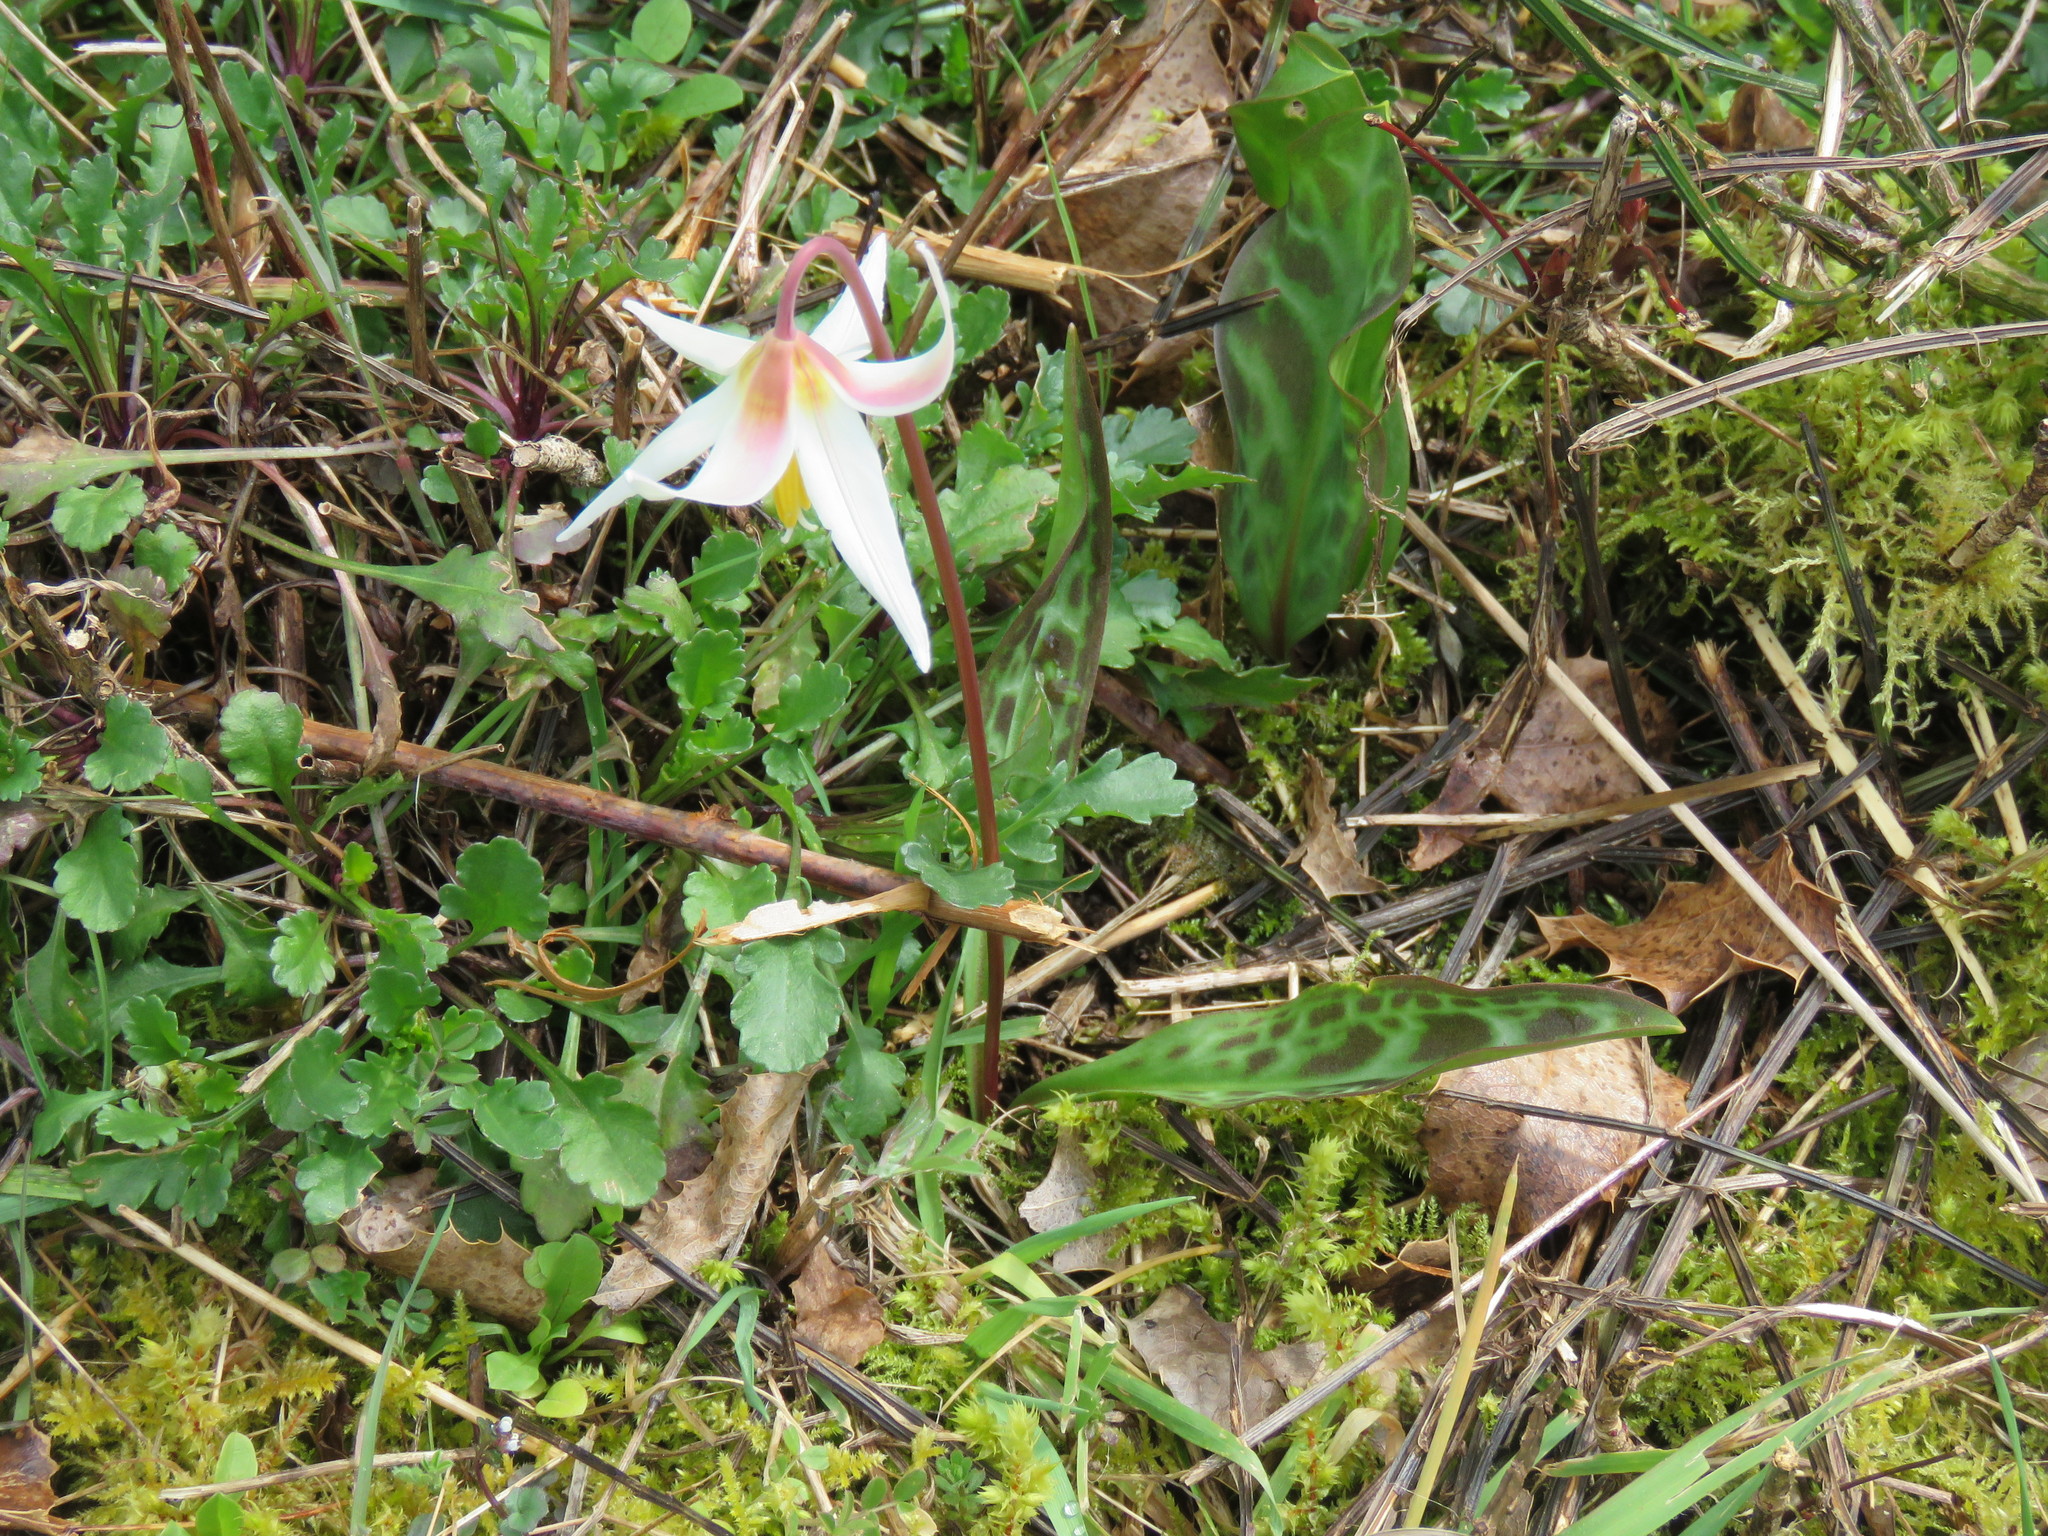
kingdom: Plantae
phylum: Tracheophyta
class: Liliopsida
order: Liliales
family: Liliaceae
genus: Erythronium
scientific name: Erythronium oregonum
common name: Giant adder's-tongue
